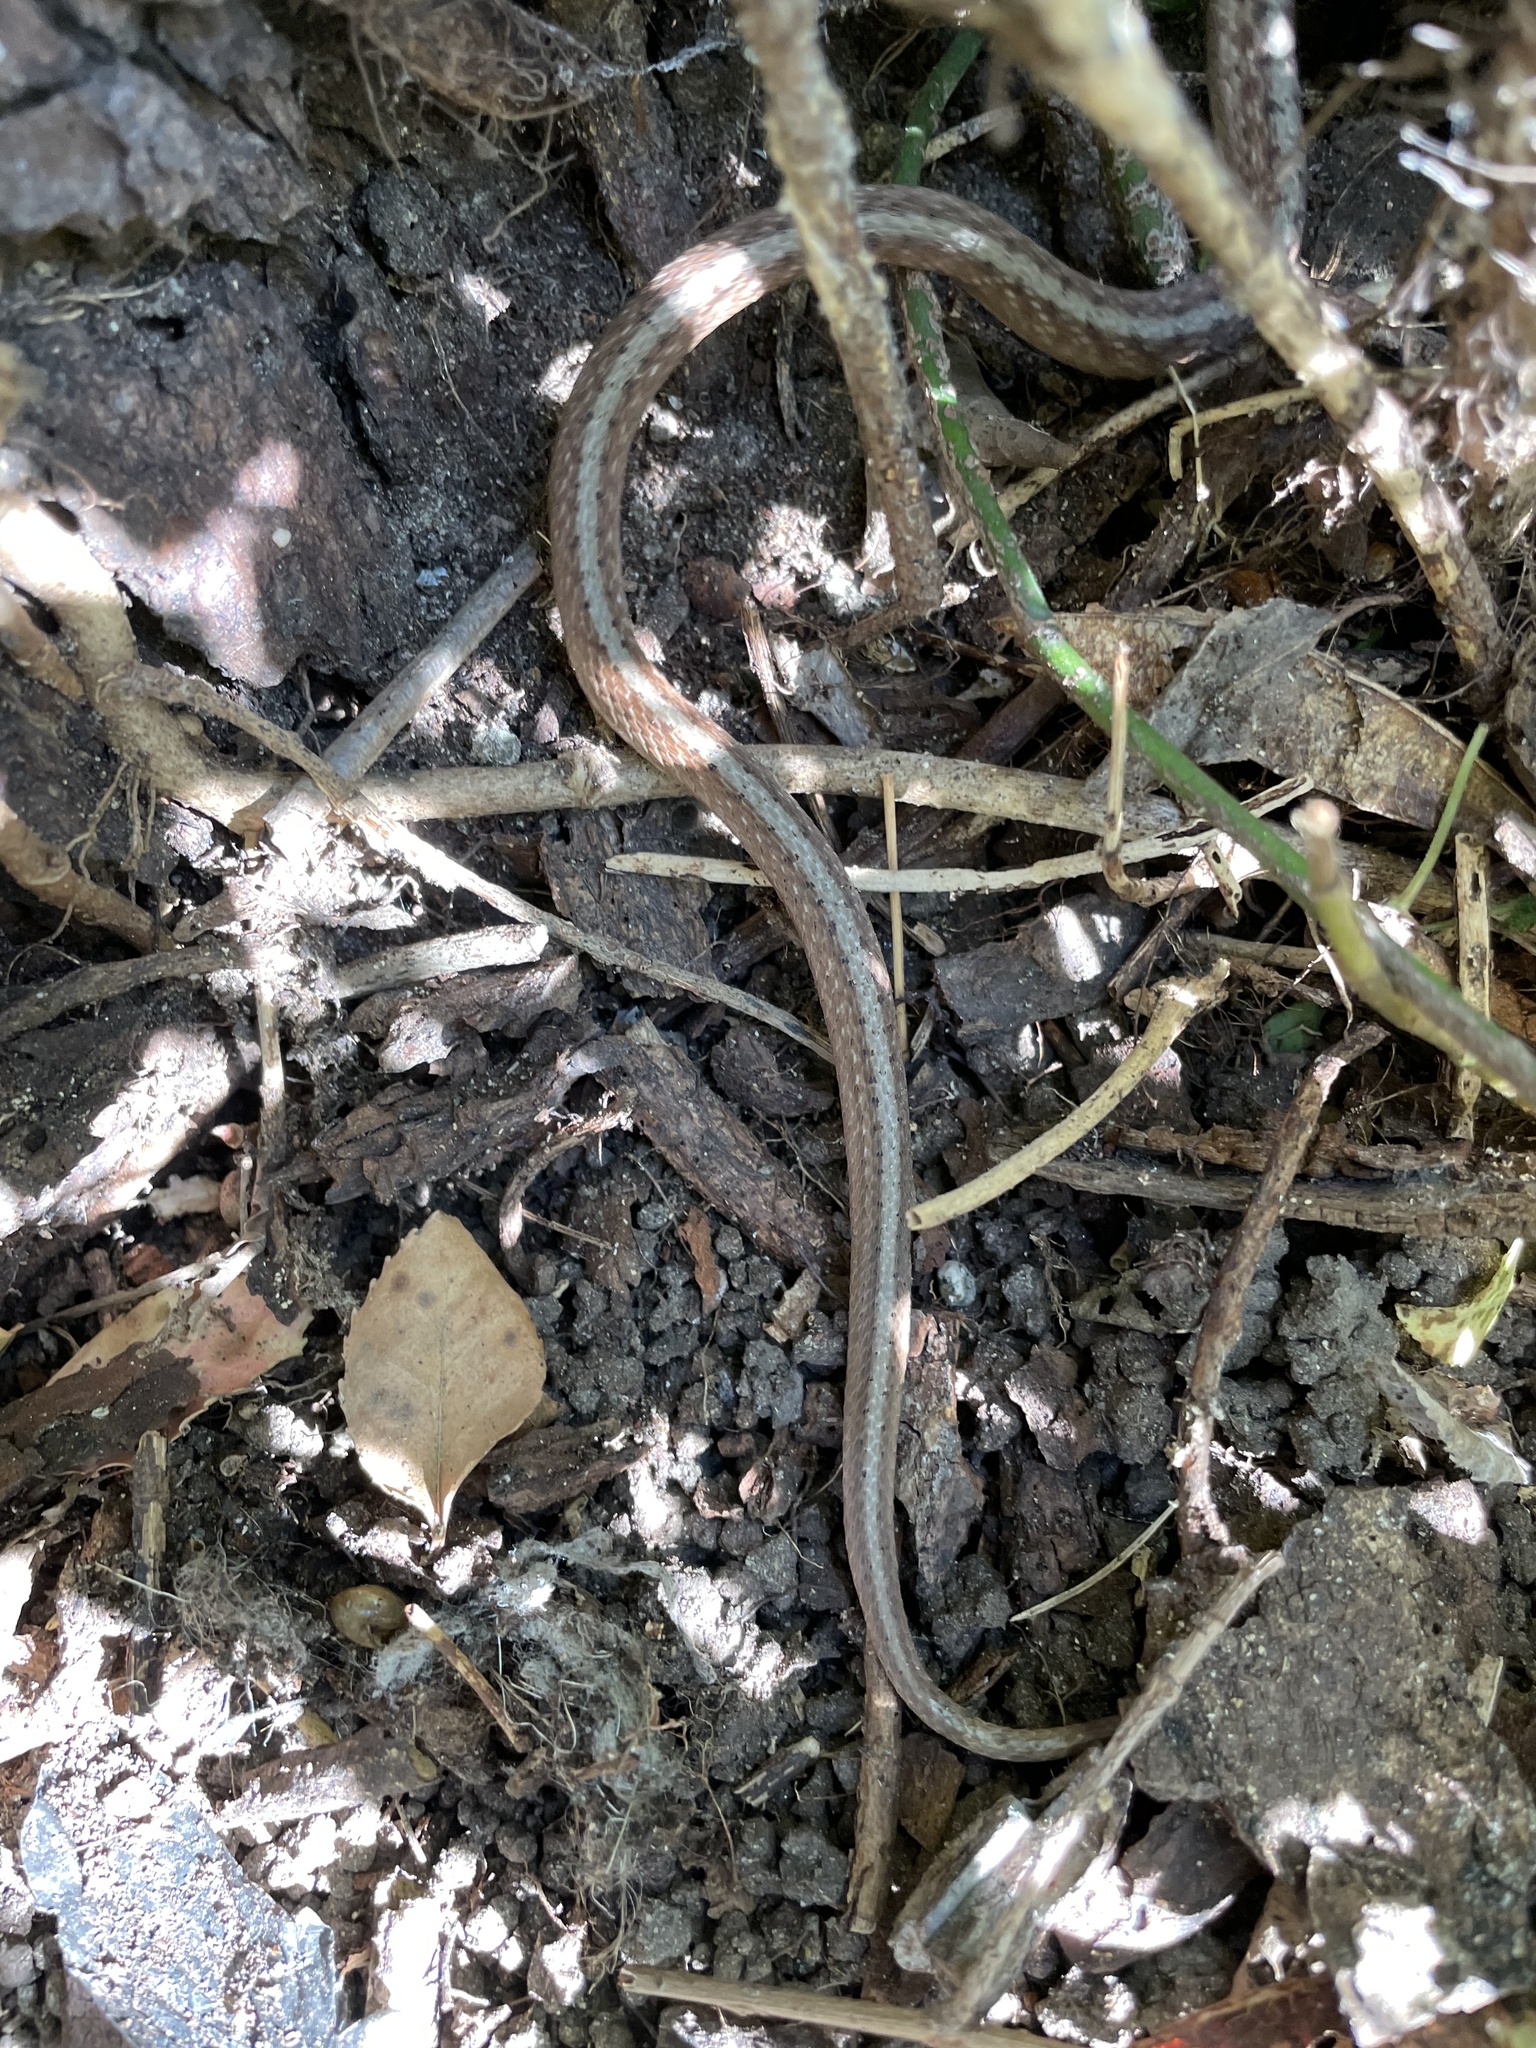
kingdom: Animalia
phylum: Chordata
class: Squamata
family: Colubridae
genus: Storeria
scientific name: Storeria dekayi
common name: (dekay’s) brown snake
